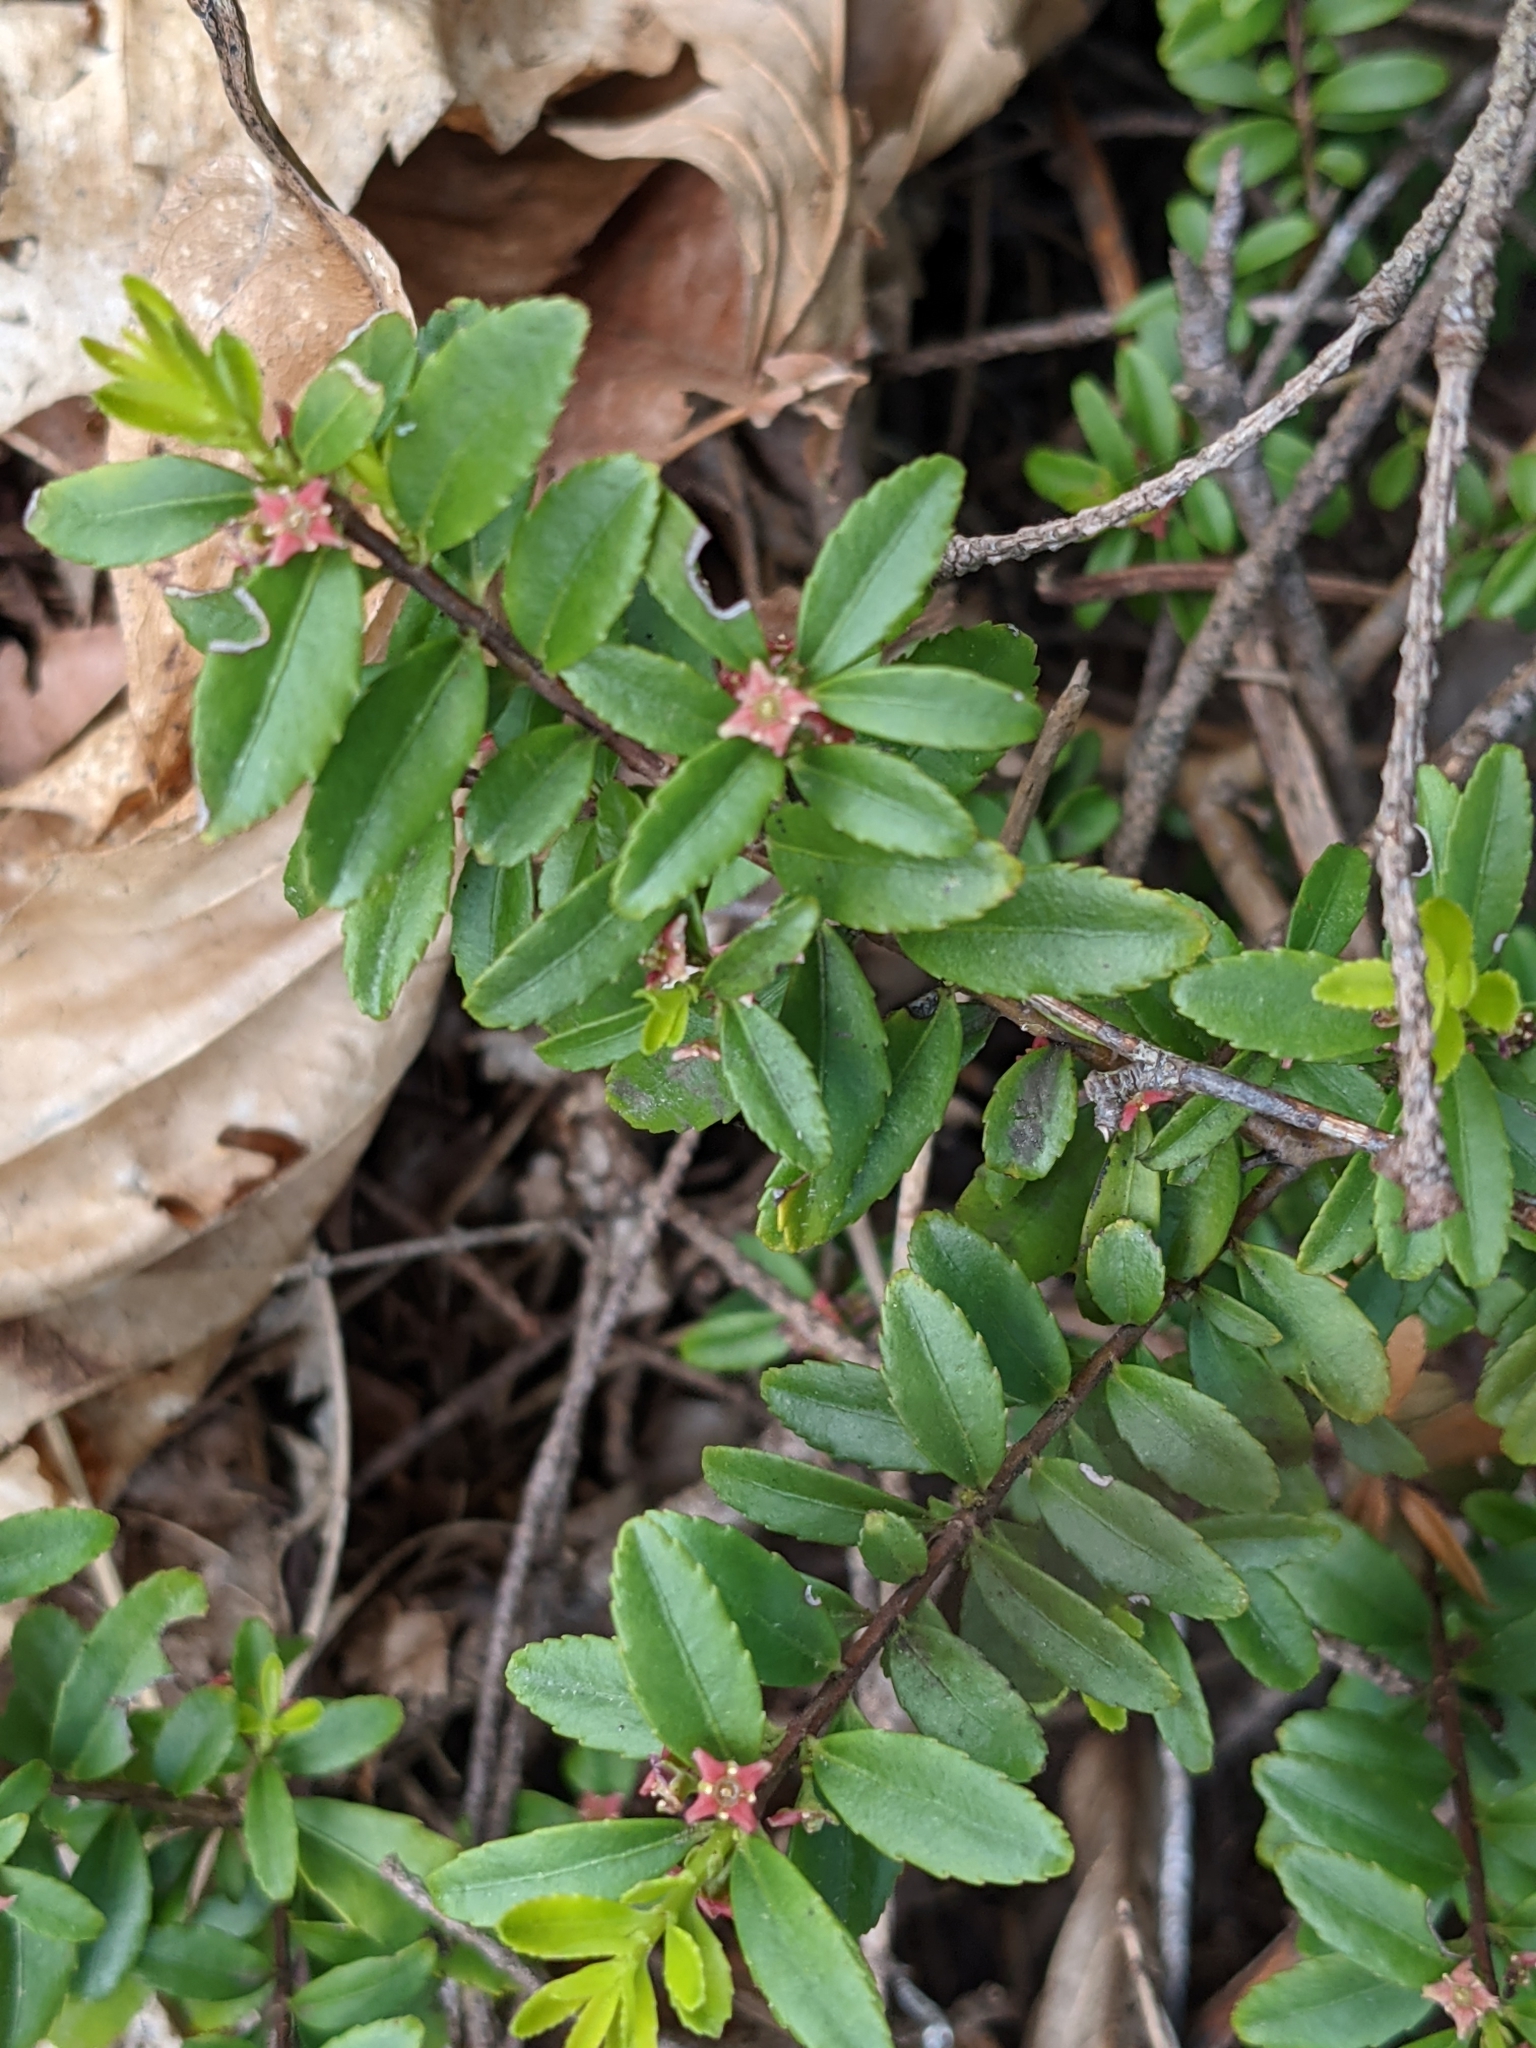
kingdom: Plantae
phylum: Tracheophyta
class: Magnoliopsida
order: Celastrales
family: Celastraceae
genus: Paxistima
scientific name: Paxistima myrsinites
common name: Mountain-lover
